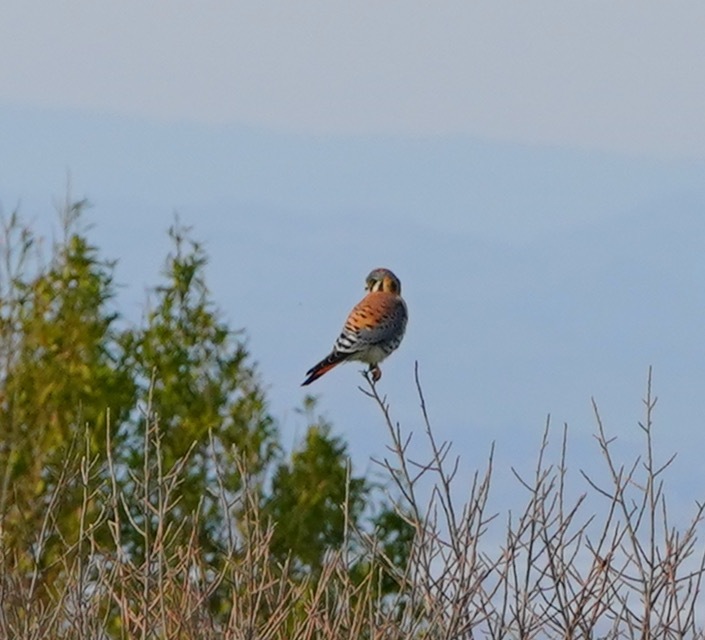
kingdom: Animalia
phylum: Chordata
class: Aves
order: Falconiformes
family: Falconidae
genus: Falco
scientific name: Falco sparverius
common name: American kestrel
